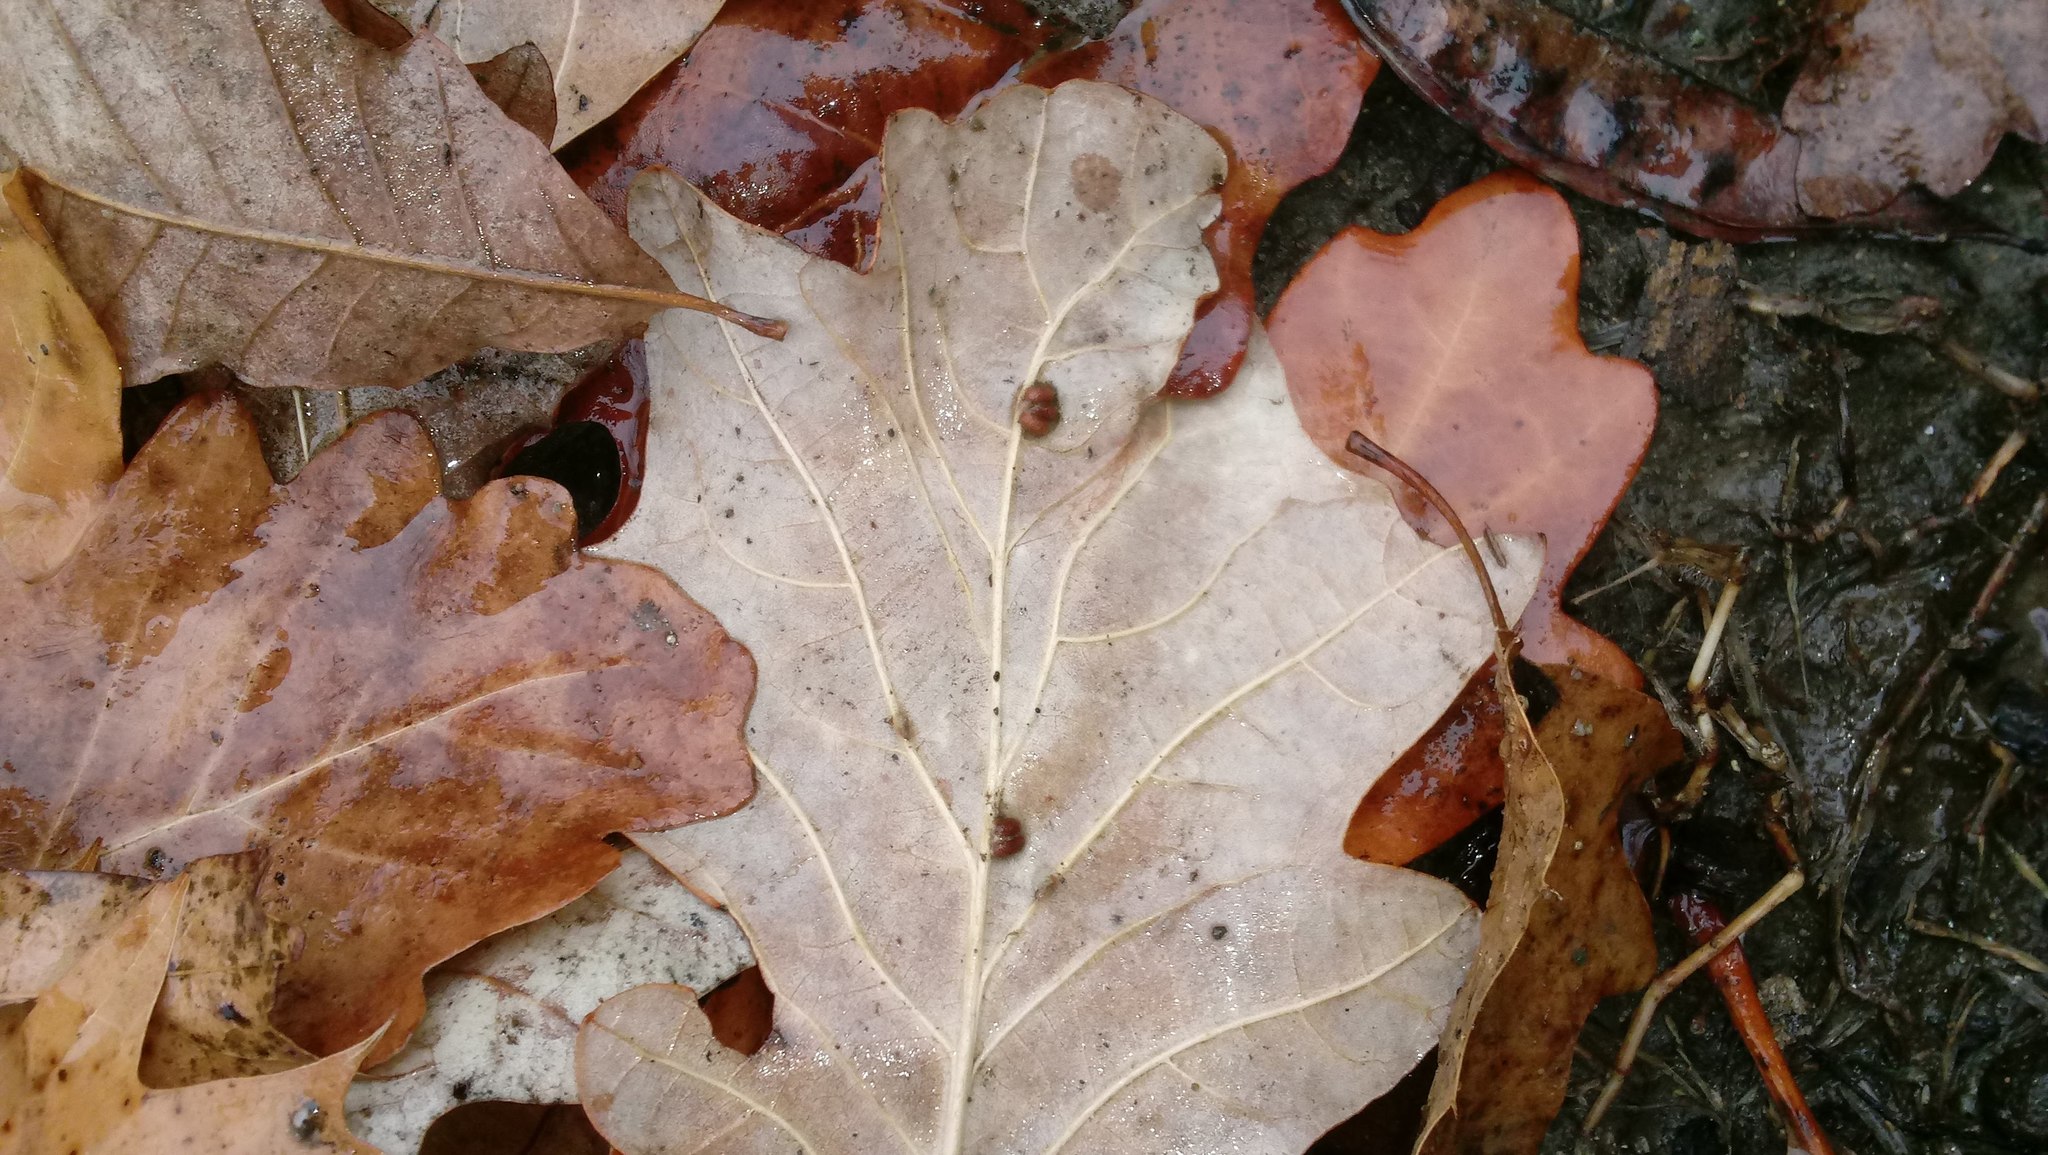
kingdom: Animalia
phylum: Arthropoda
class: Insecta
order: Hymenoptera
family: Cynipidae
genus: Andricus
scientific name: Andricus Druon ignotum
